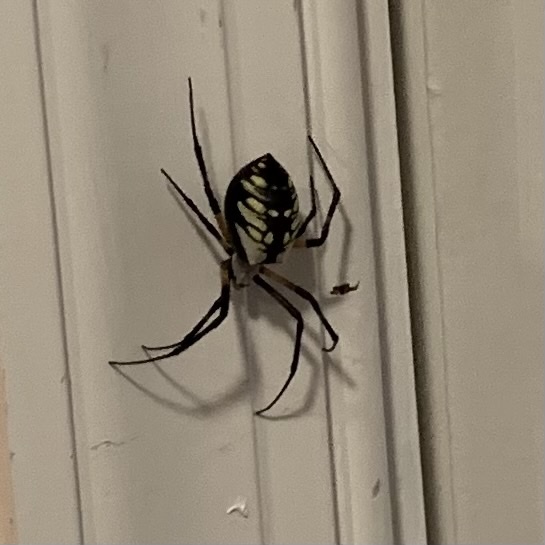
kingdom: Animalia
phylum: Arthropoda
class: Arachnida
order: Araneae
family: Araneidae
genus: Argiope
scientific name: Argiope aurantia
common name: Orb weavers
